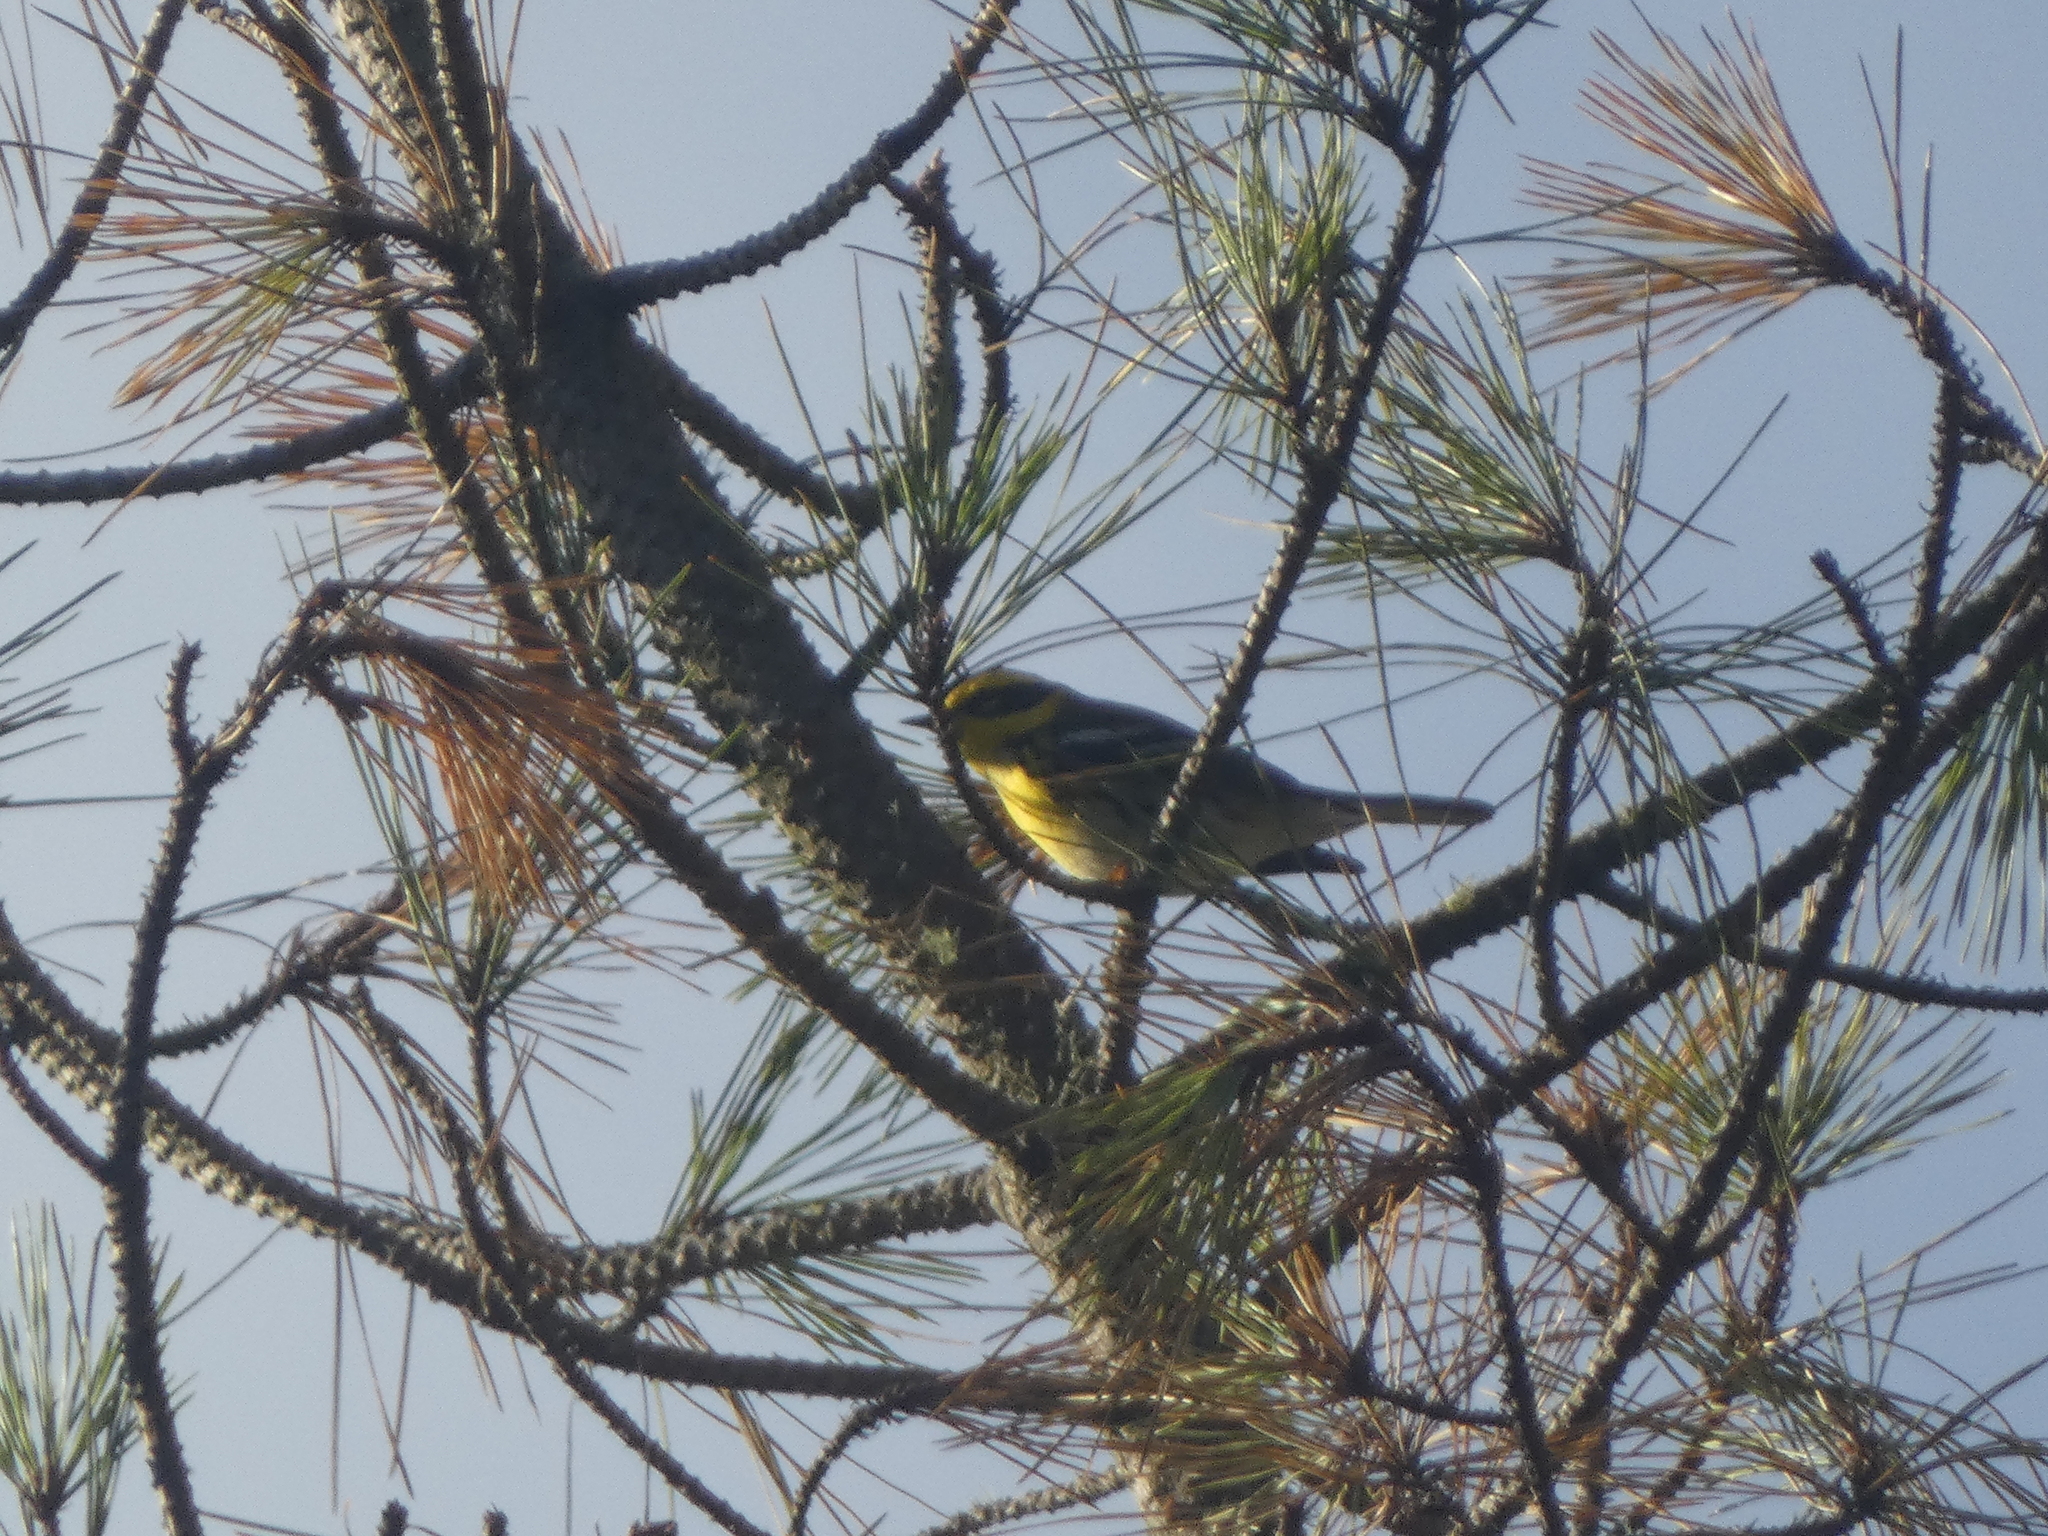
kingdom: Animalia
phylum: Chordata
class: Aves
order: Passeriformes
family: Parulidae
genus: Setophaga
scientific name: Setophaga townsendi
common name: Townsend's warbler
